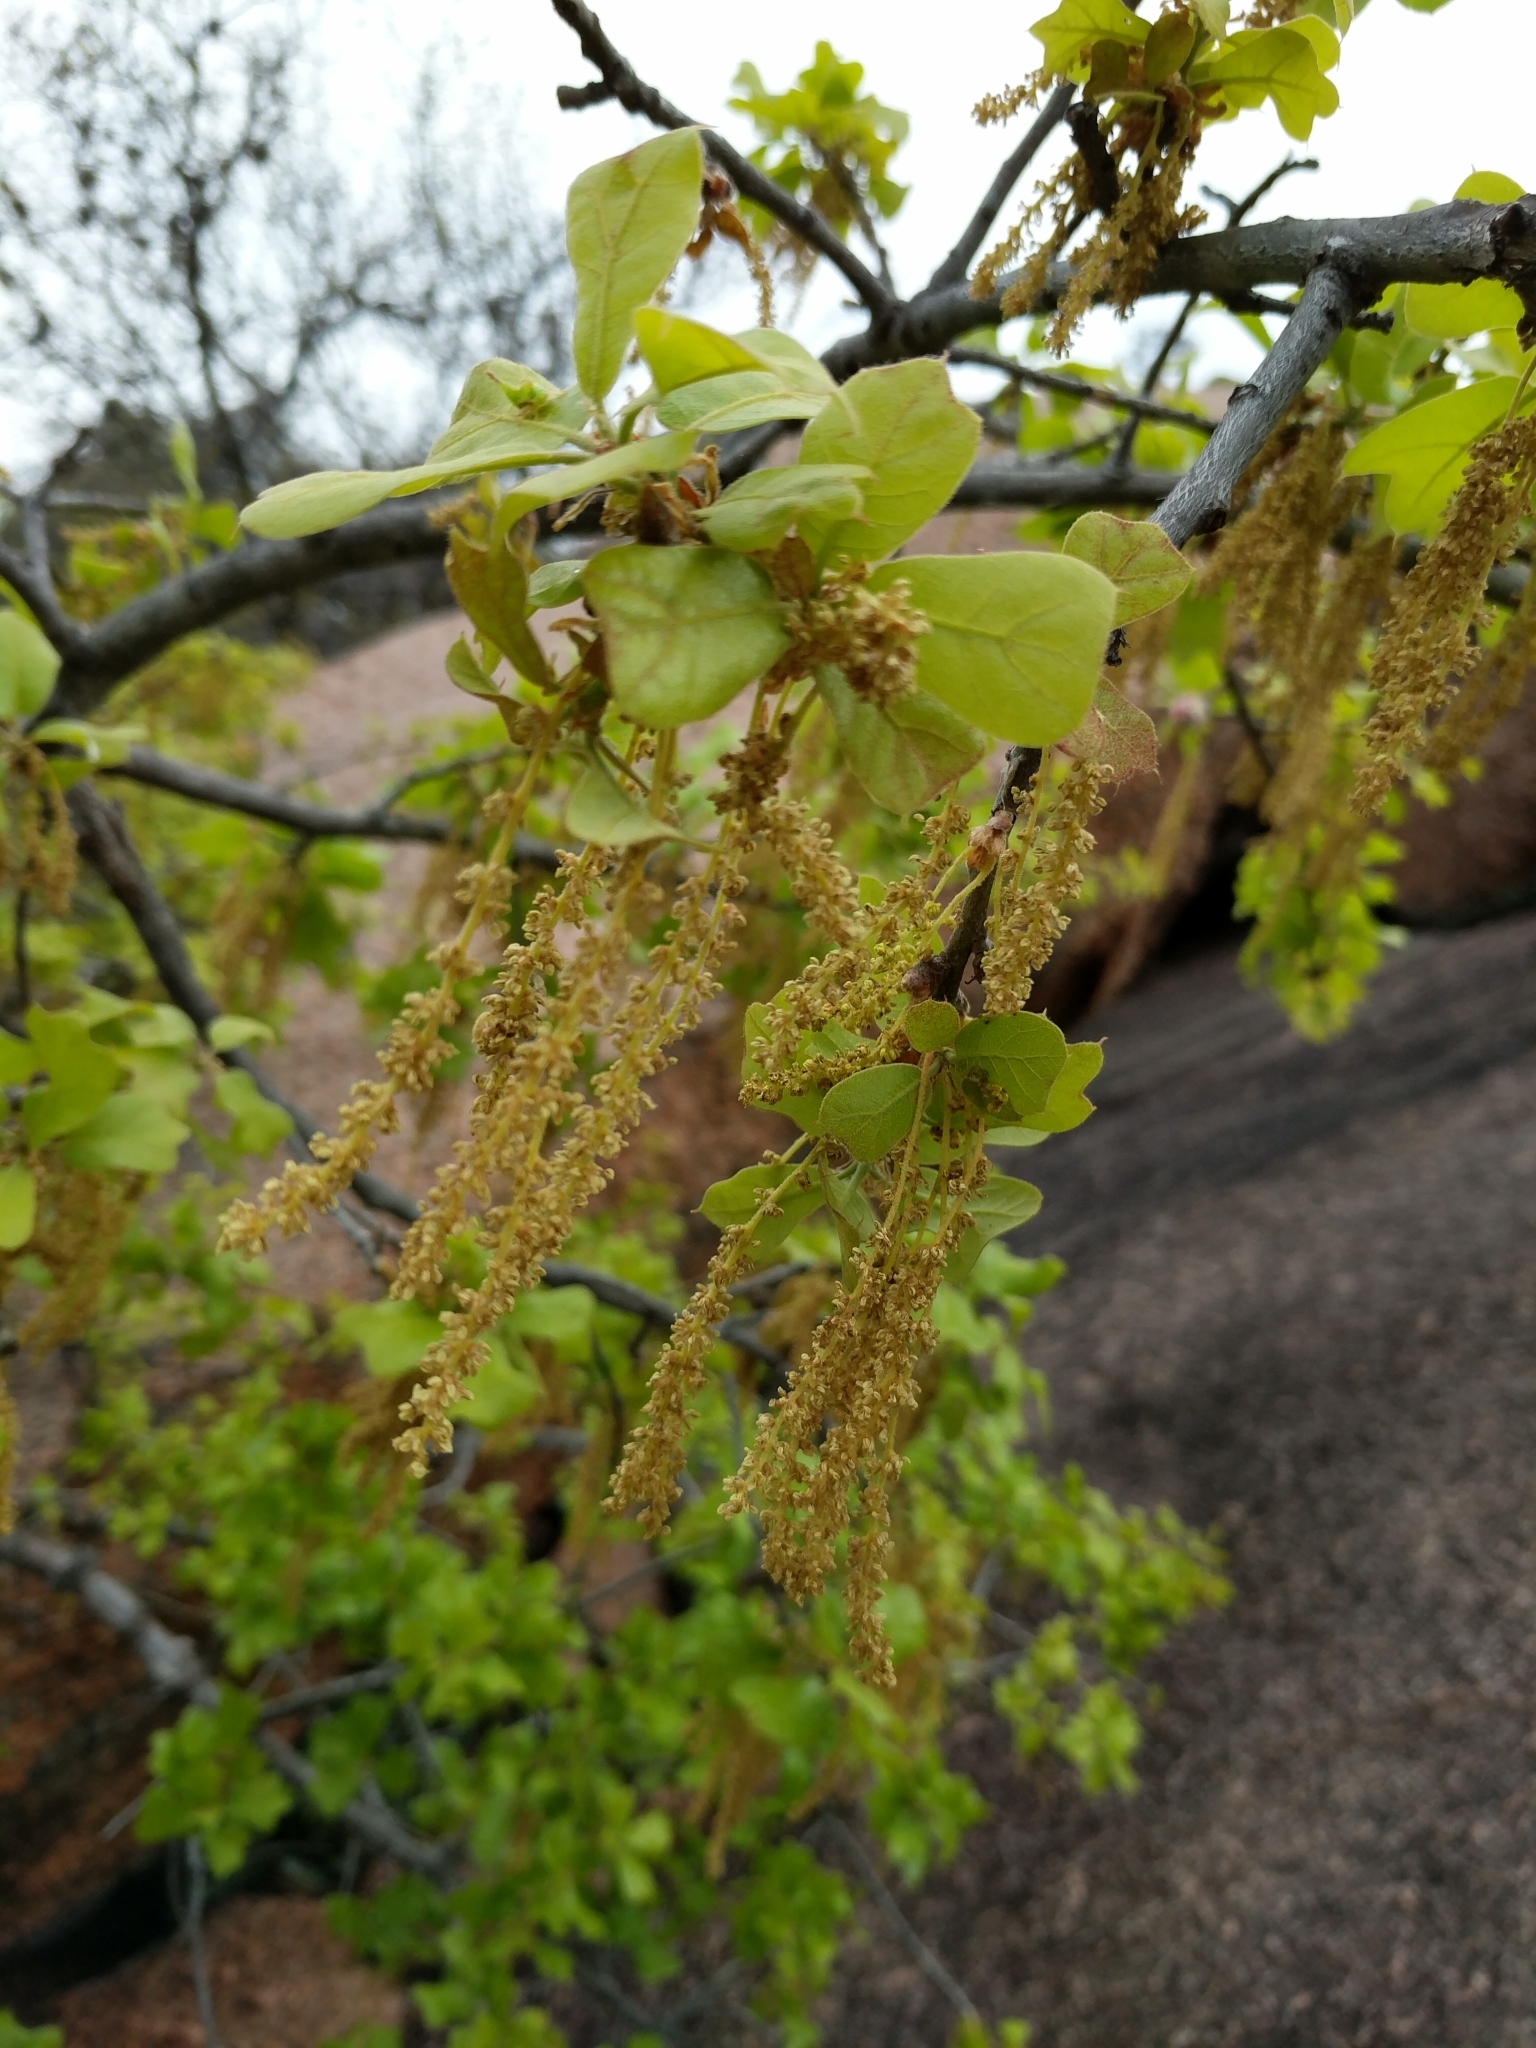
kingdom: Plantae
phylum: Tracheophyta
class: Magnoliopsida
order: Fagales
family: Fagaceae
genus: Quercus
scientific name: Quercus marilandica
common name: Blackjack oak
